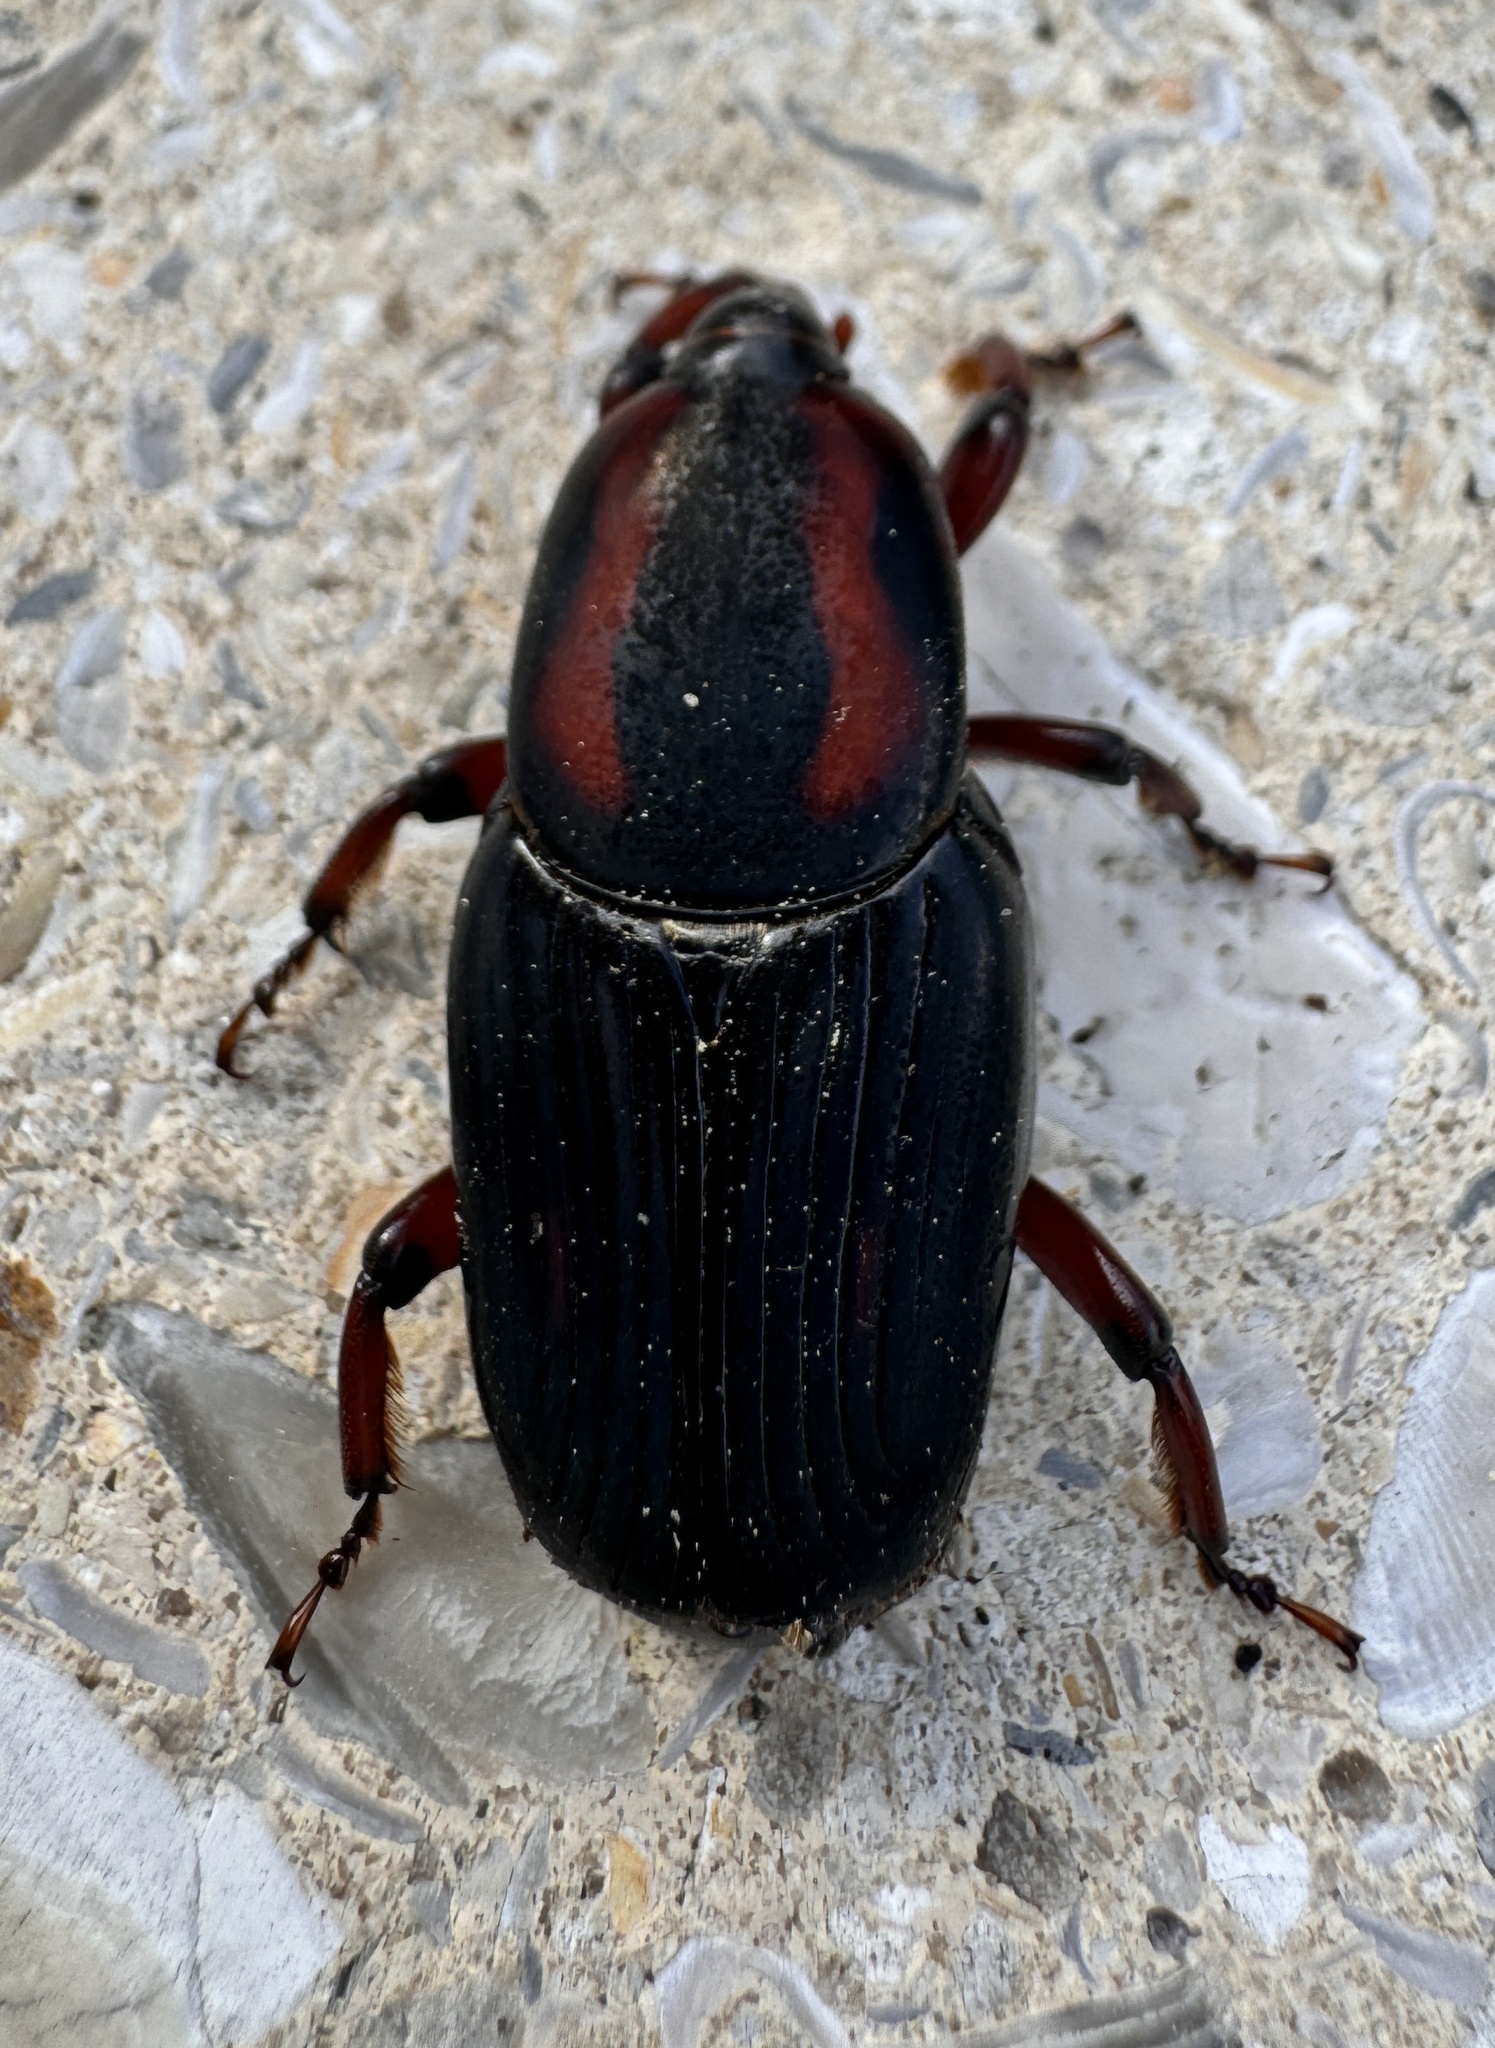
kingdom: Animalia
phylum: Arthropoda
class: Insecta
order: Coleoptera
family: Dryophthoridae
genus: Rhynchophorus
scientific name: Rhynchophorus cruentatus
